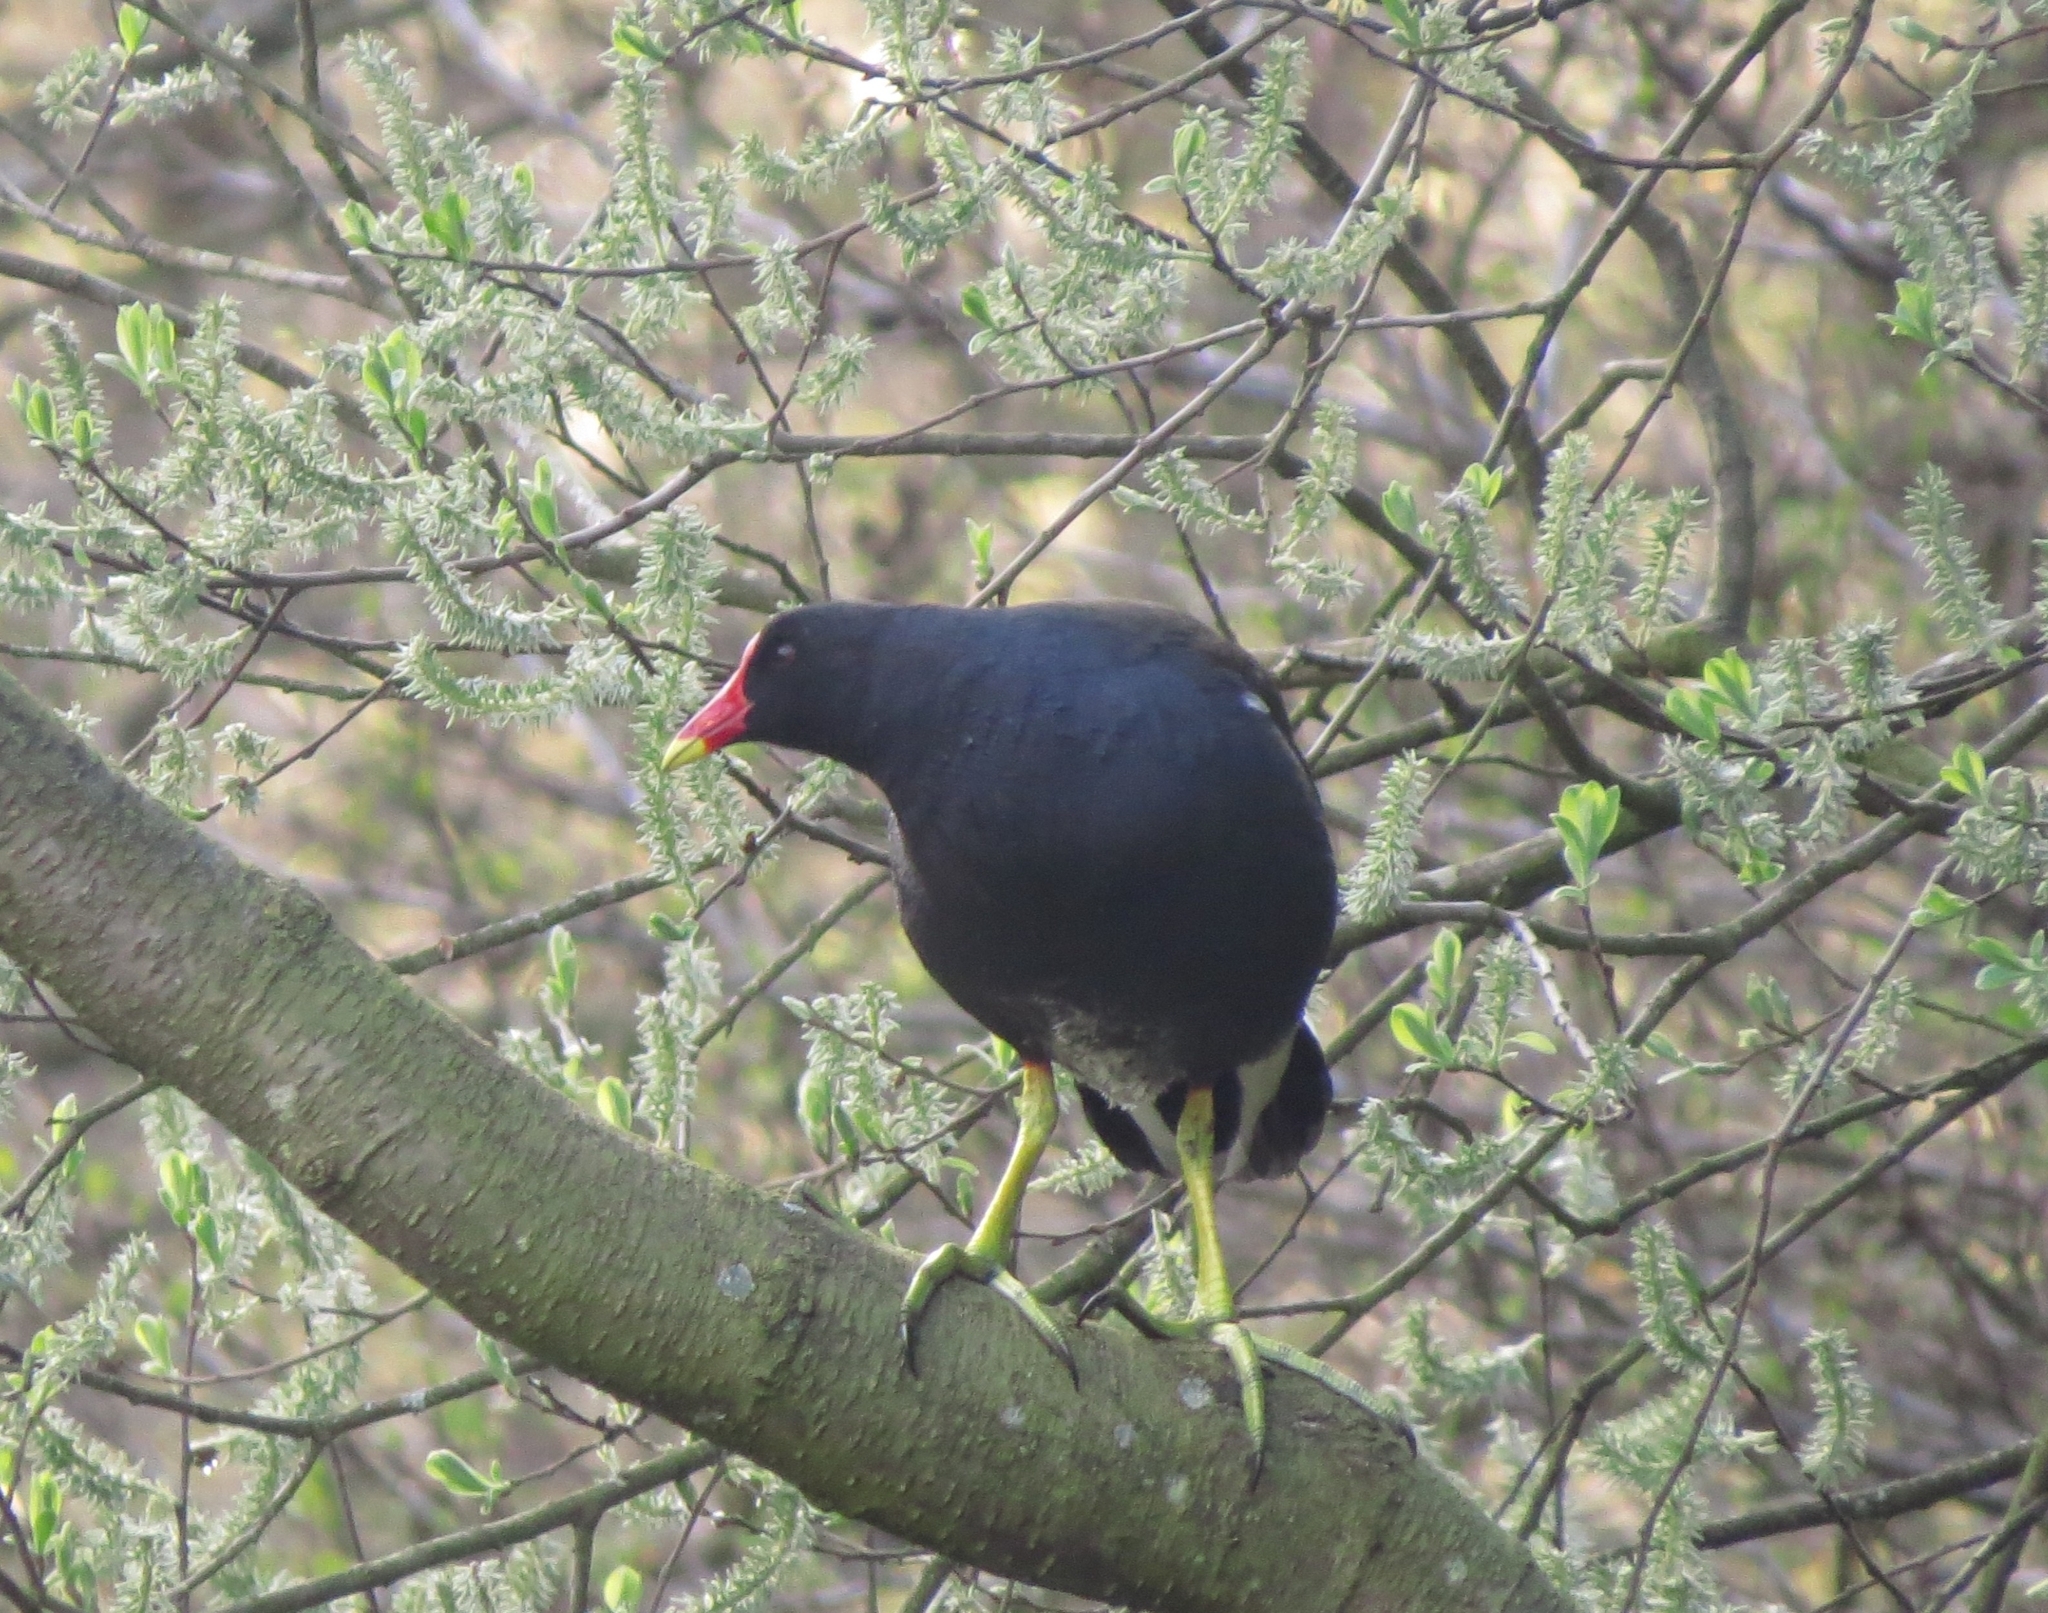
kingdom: Animalia
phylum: Chordata
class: Aves
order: Gruiformes
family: Rallidae
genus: Gallinula
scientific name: Gallinula chloropus
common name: Common moorhen
